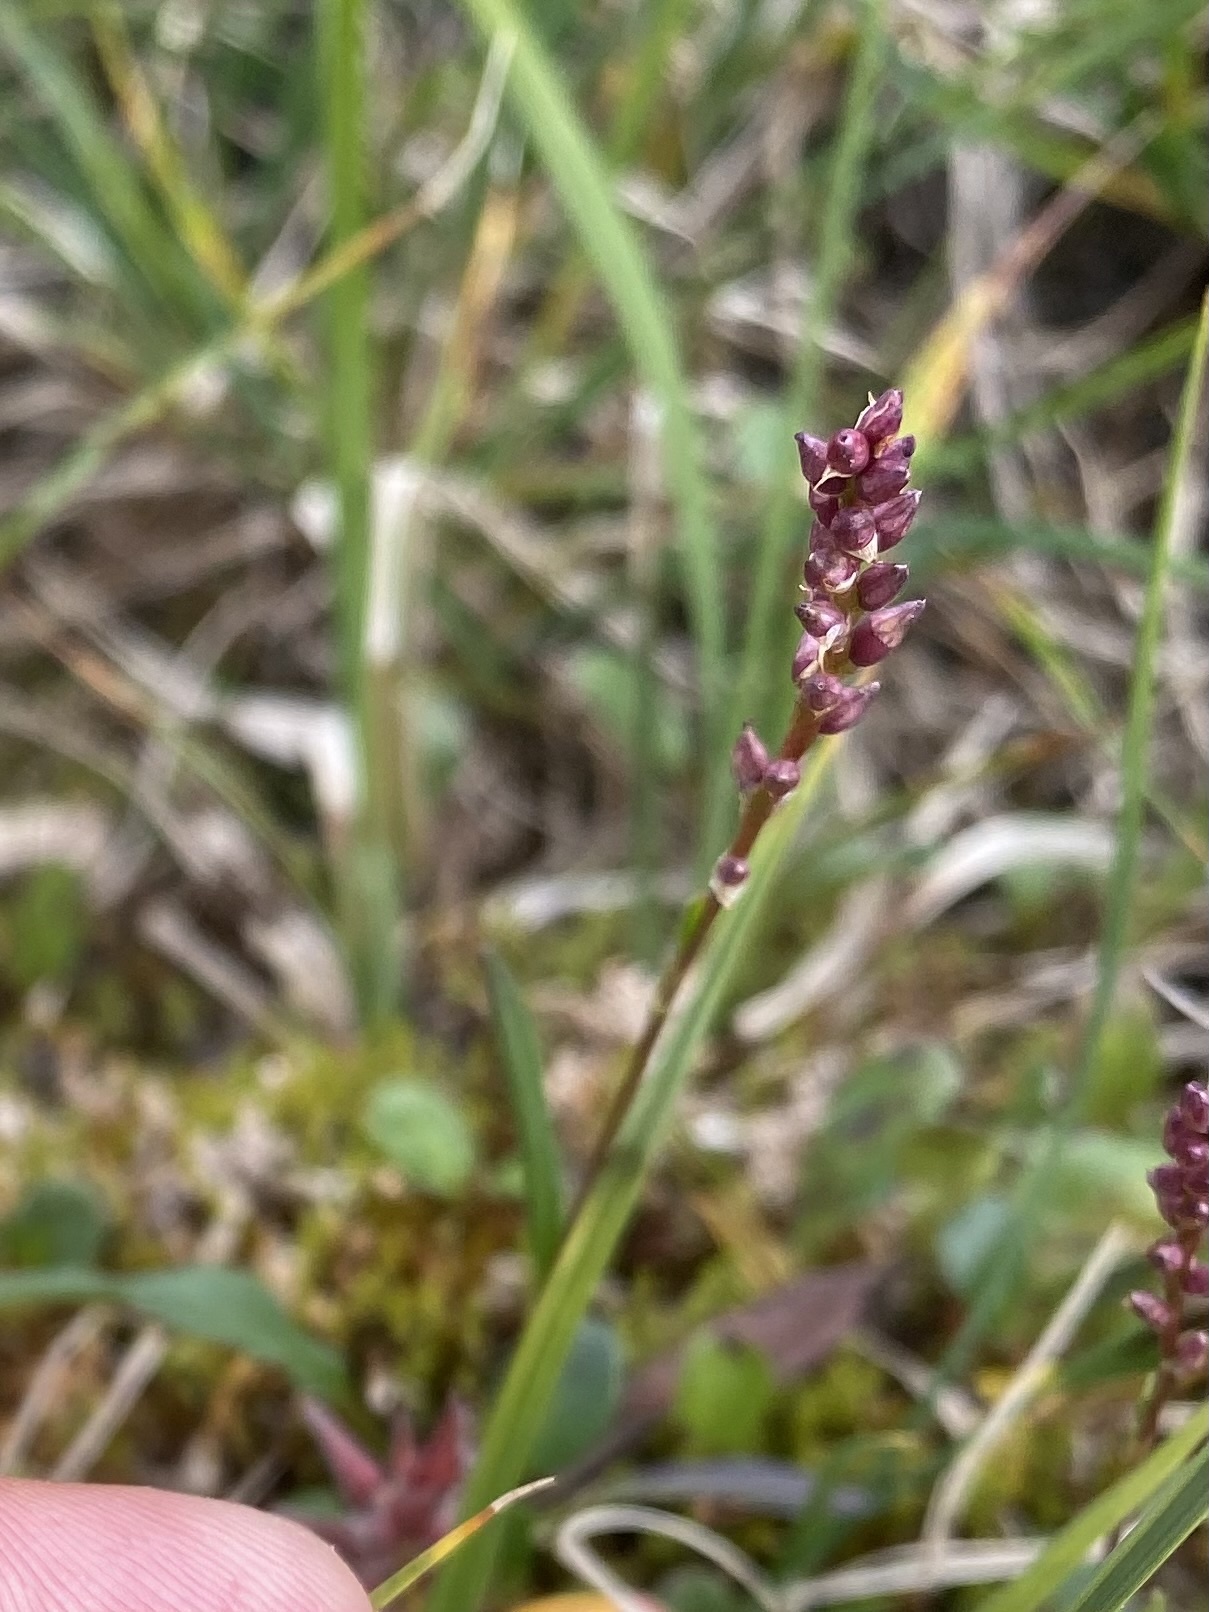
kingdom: Plantae
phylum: Tracheophyta
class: Magnoliopsida
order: Caryophyllales
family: Polygonaceae
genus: Bistorta
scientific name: Bistorta vivipara
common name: Alpine bistort
